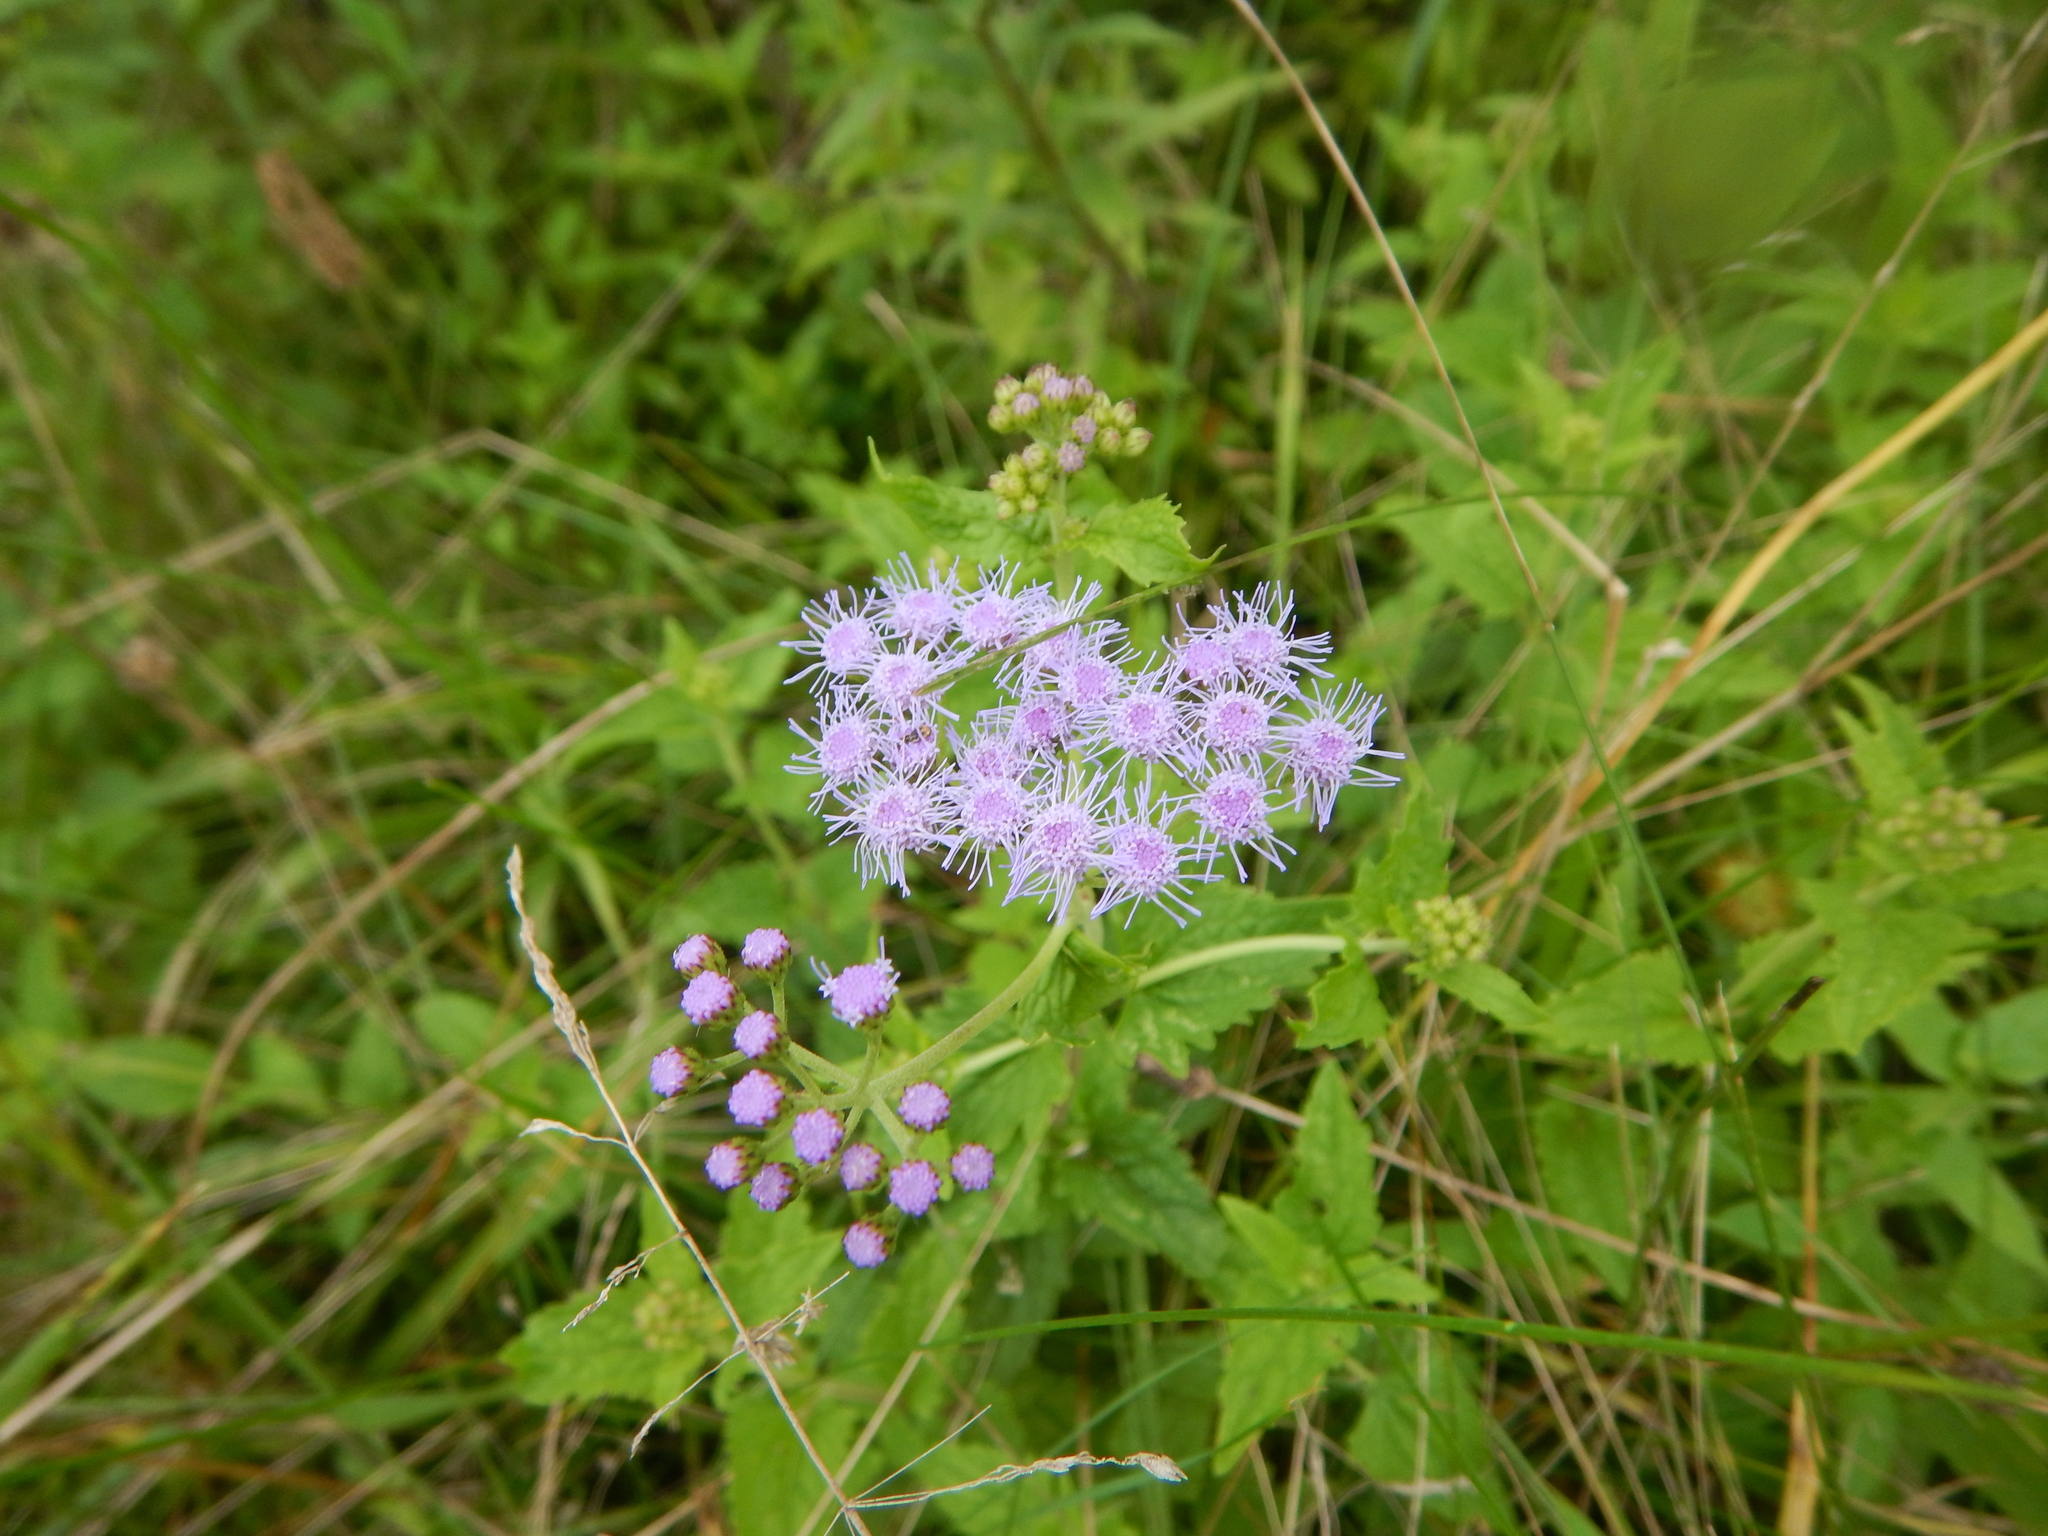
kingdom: Plantae
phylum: Tracheophyta
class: Magnoliopsida
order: Asterales
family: Asteraceae
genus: Conoclinium
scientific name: Conoclinium coelestinum
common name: Blue mistflower
